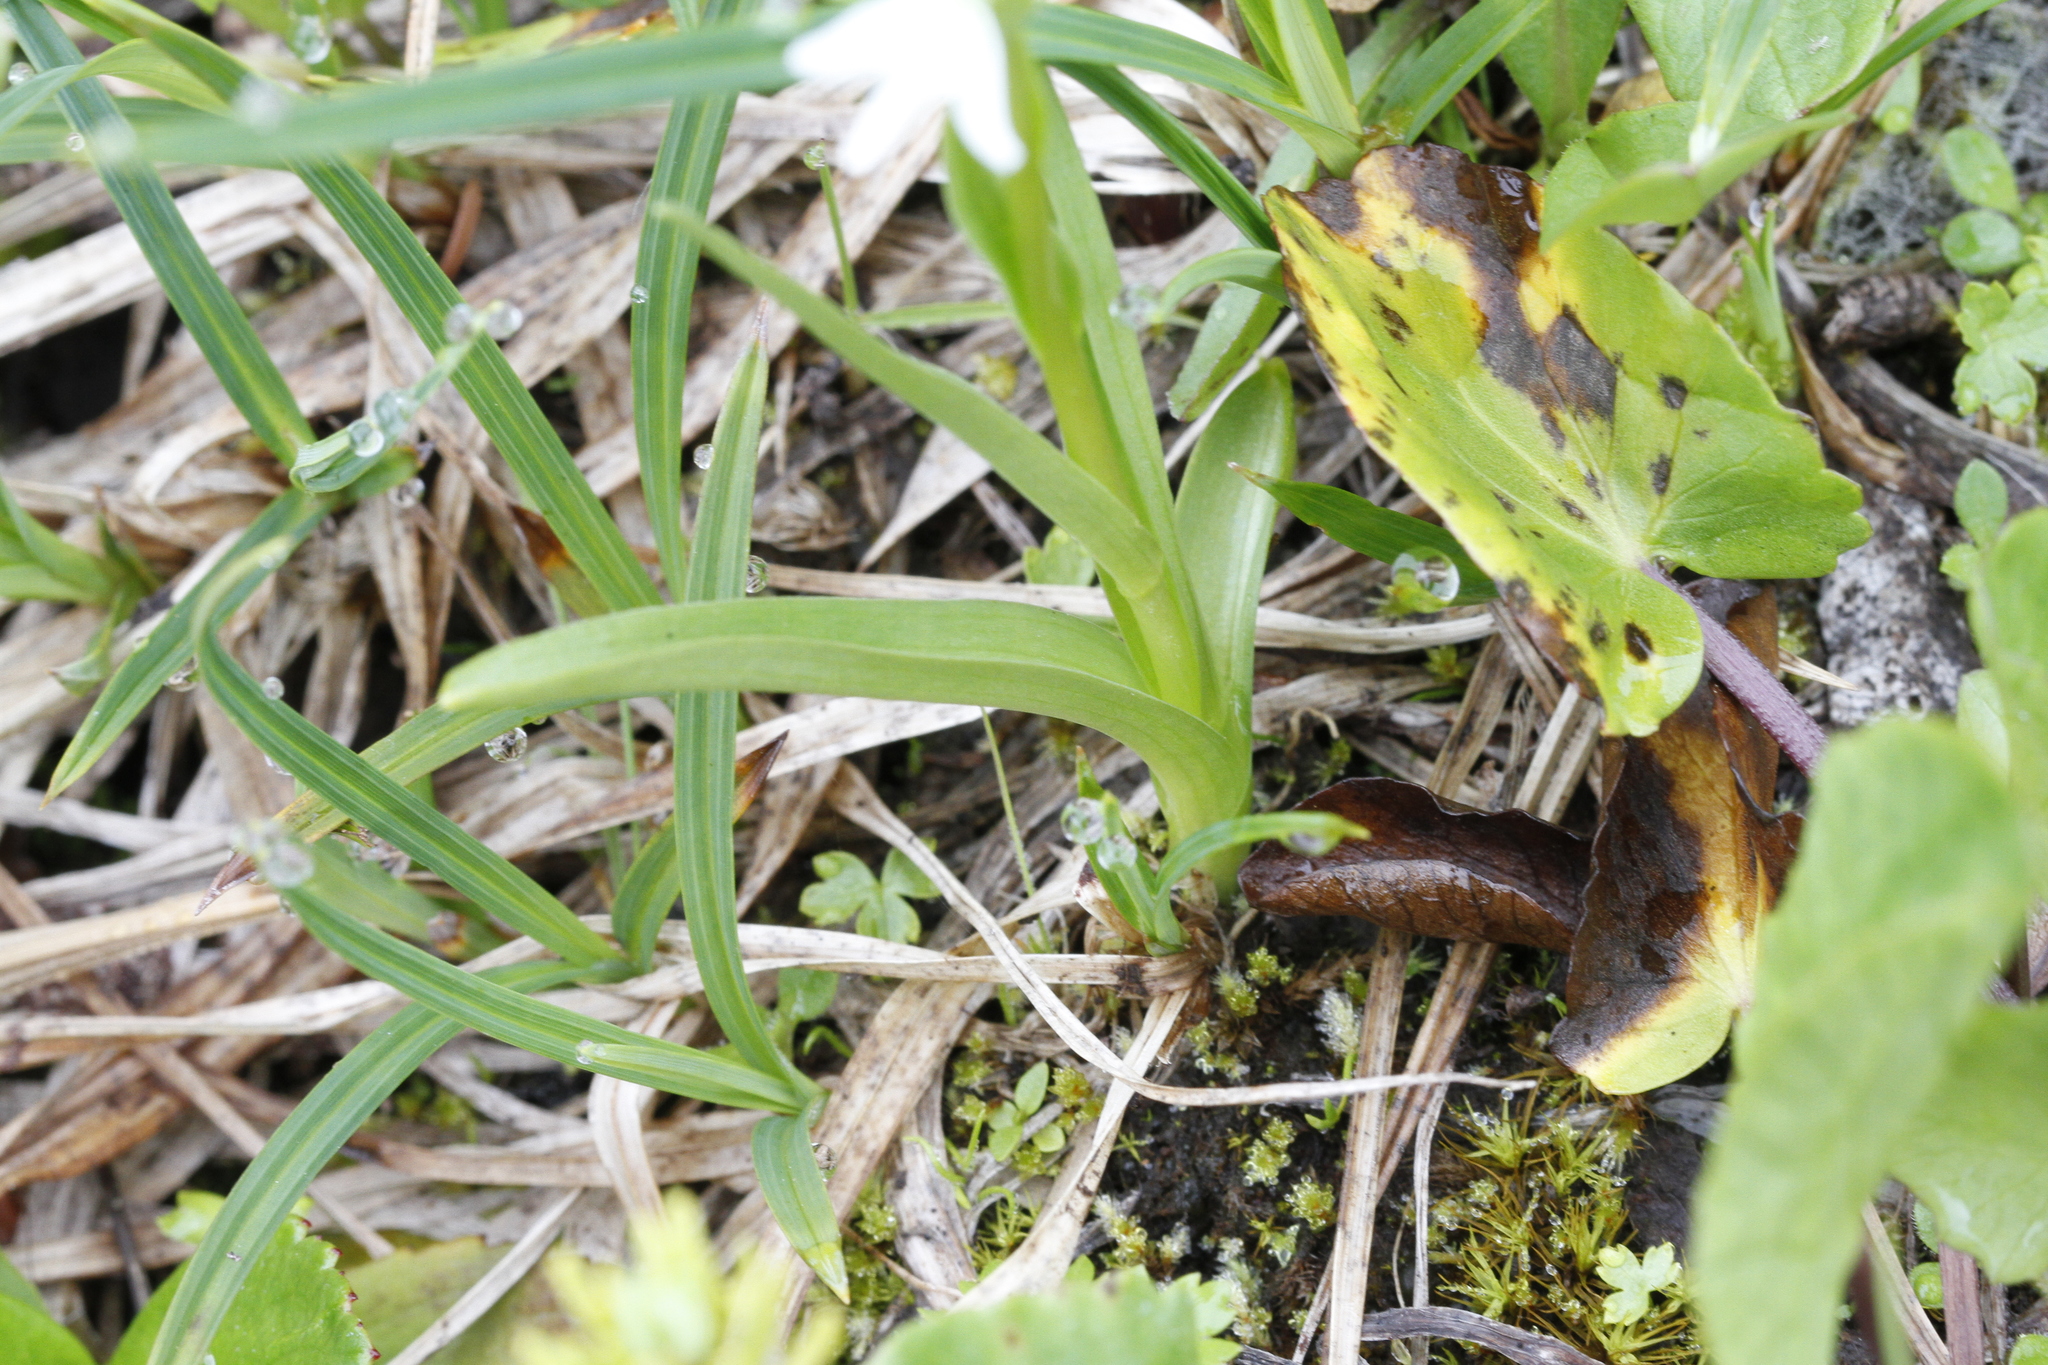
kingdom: Plantae
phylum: Tracheophyta
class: Liliopsida
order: Asparagales
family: Orchidaceae
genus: Platanthera
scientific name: Platanthera dilatata
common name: Bog candles
